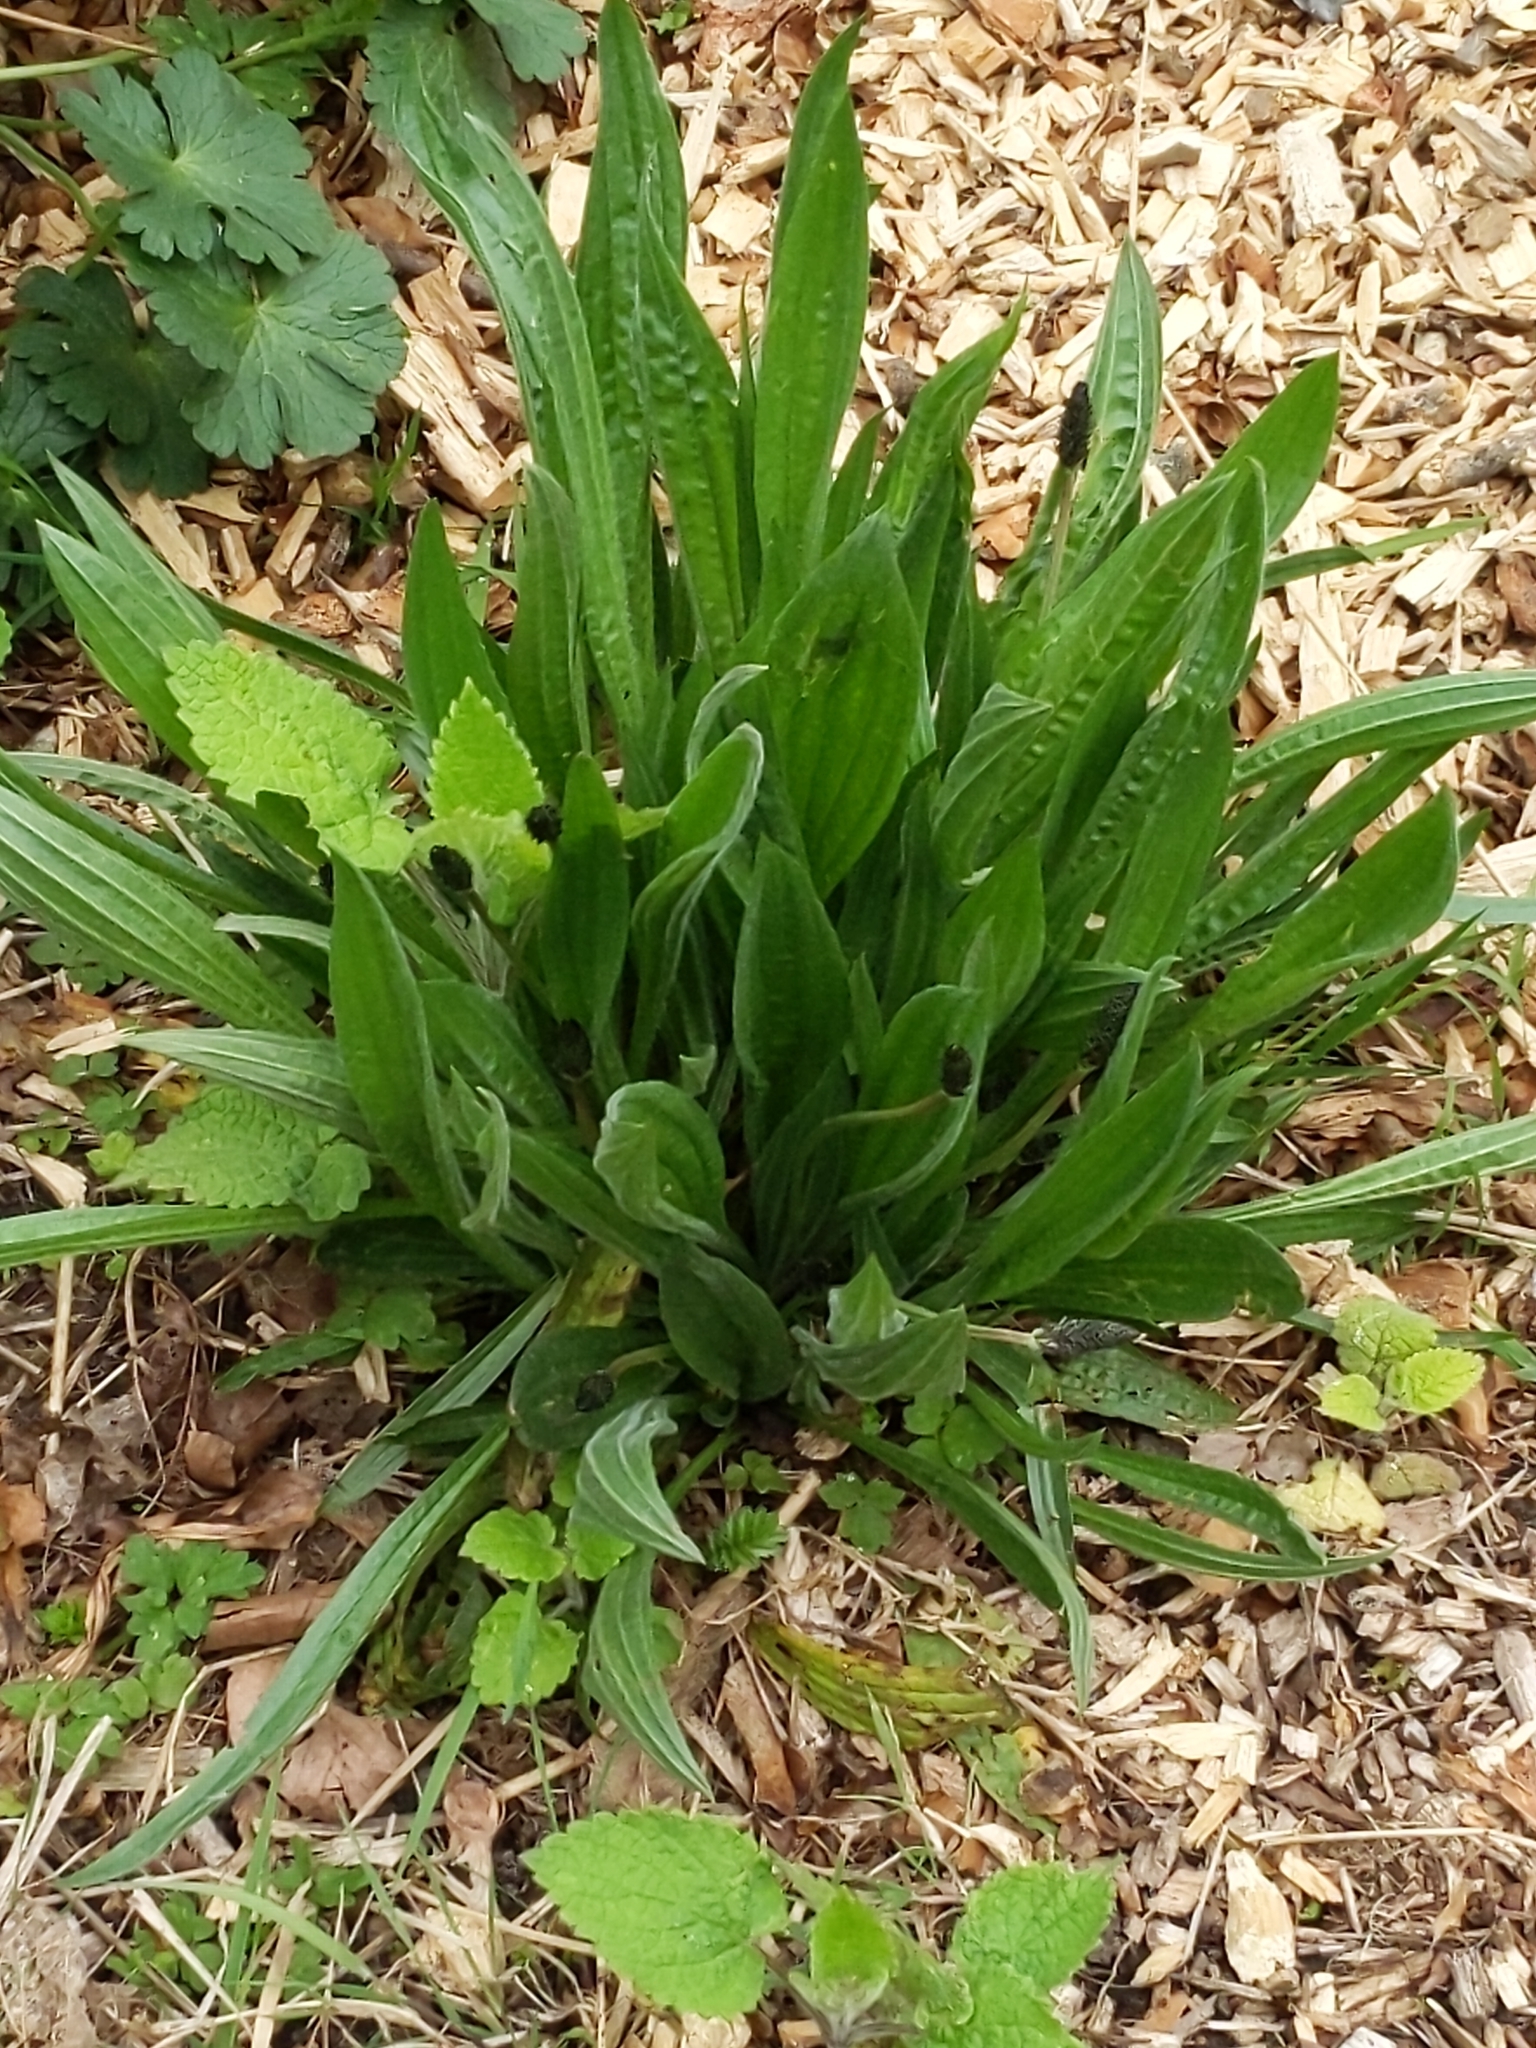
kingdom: Plantae
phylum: Tracheophyta
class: Magnoliopsida
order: Lamiales
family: Plantaginaceae
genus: Plantago
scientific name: Plantago lanceolata
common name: Ribwort plantain
